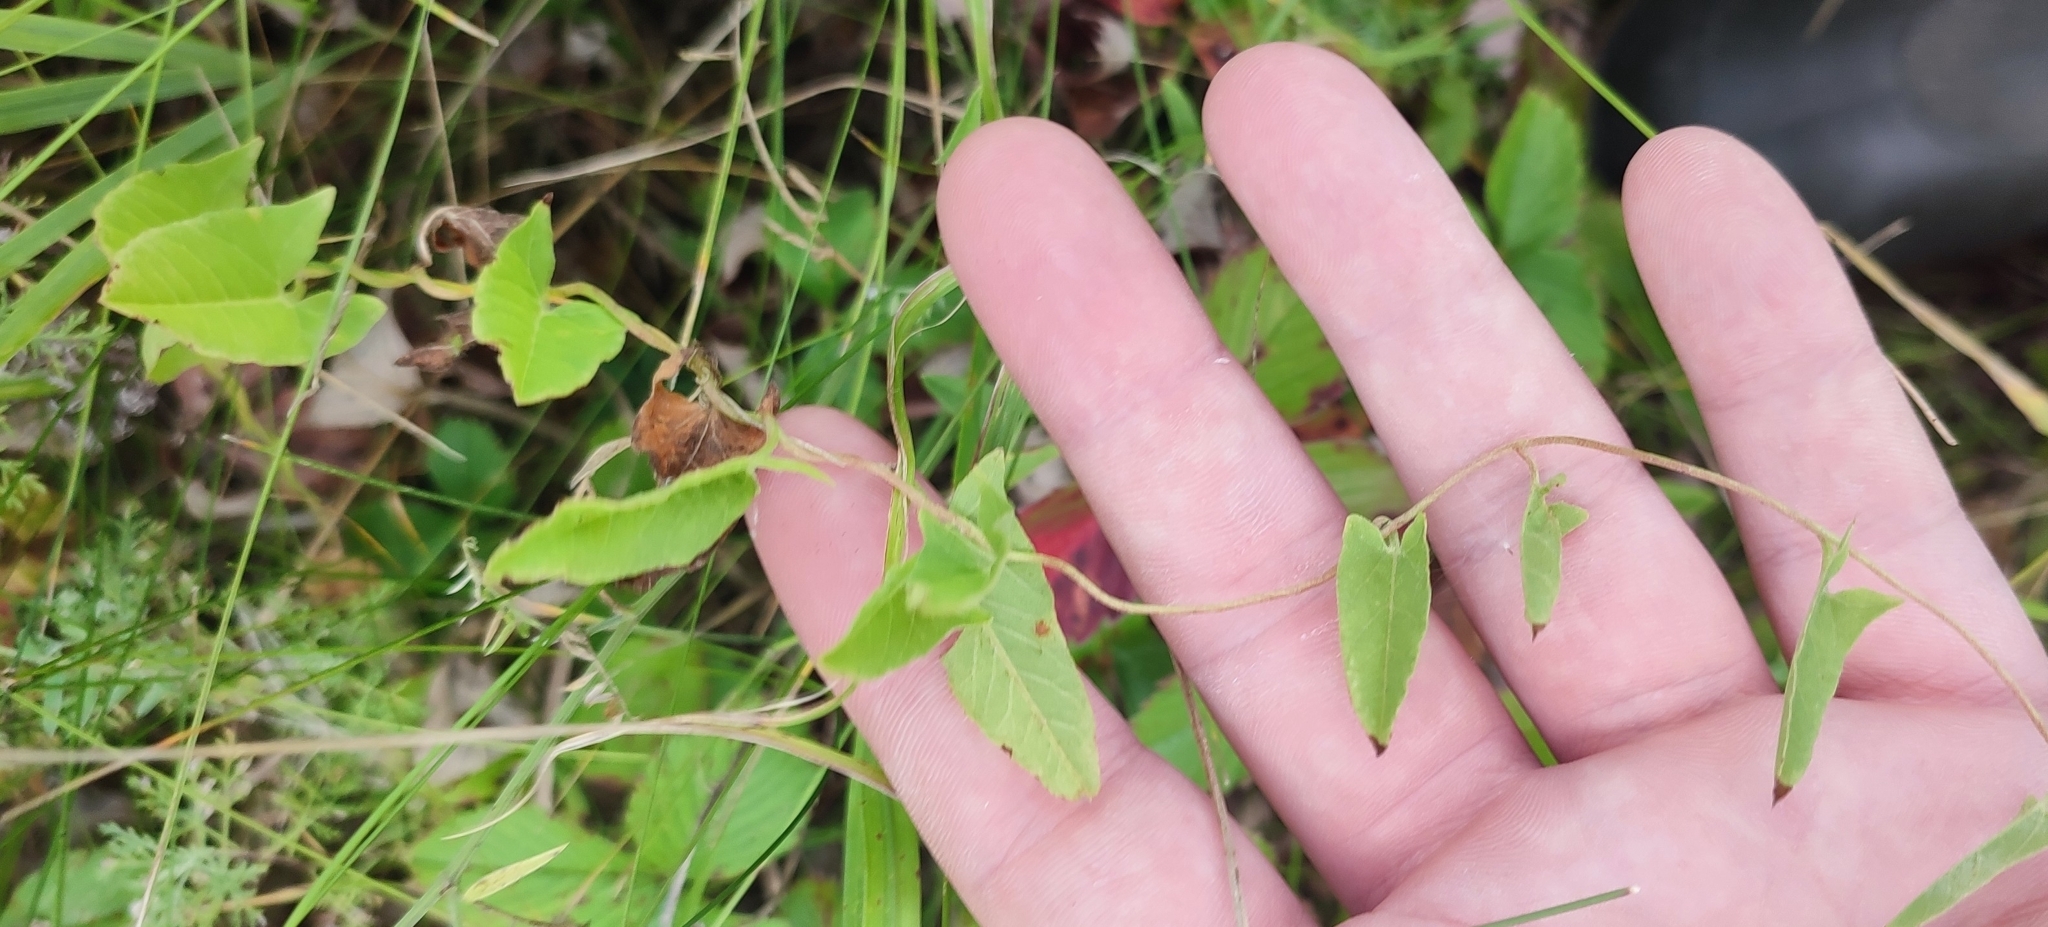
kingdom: Plantae
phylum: Tracheophyta
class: Magnoliopsida
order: Solanales
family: Convolvulaceae
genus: Convolvulus
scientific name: Convolvulus arvensis
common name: Field bindweed
